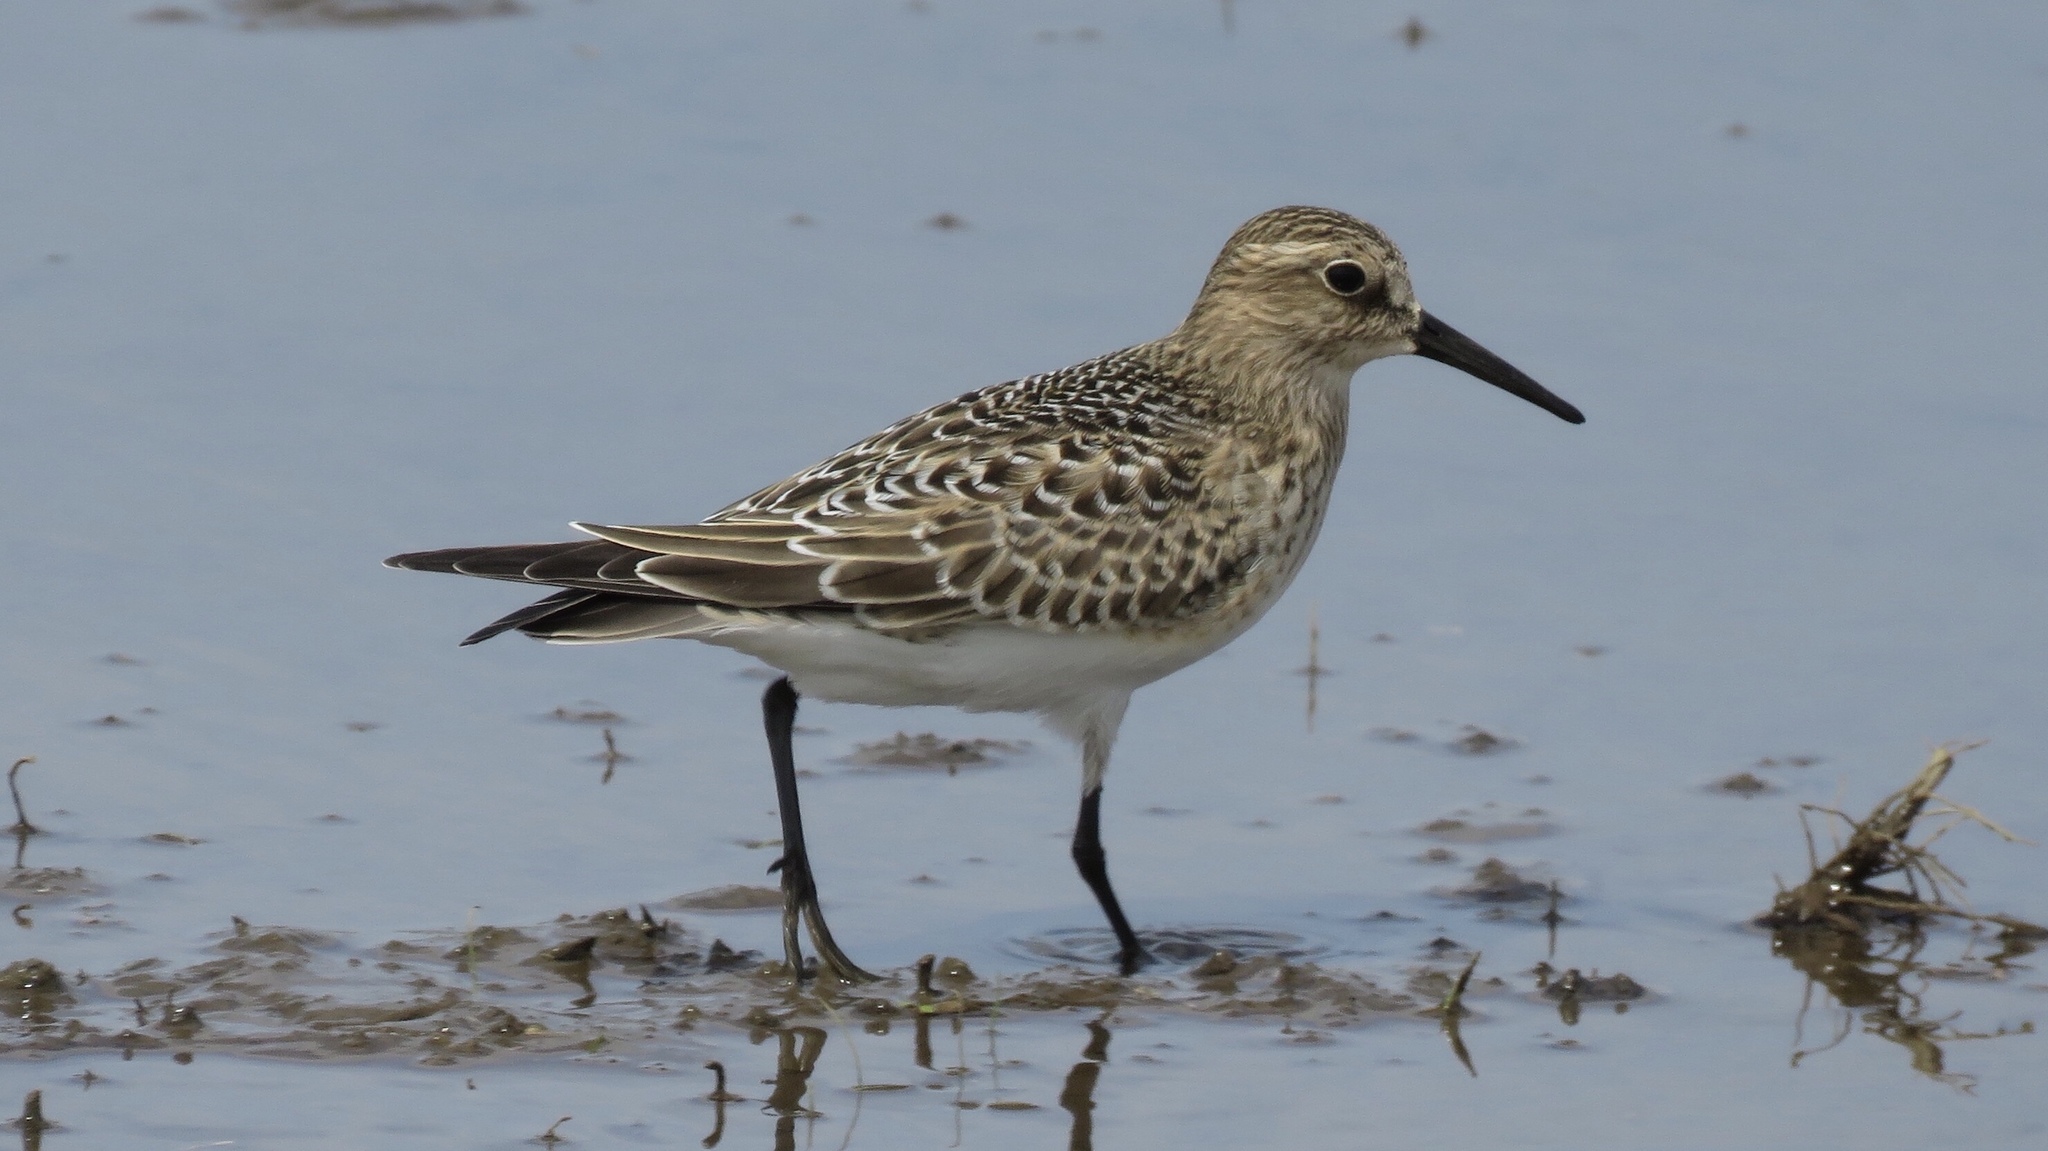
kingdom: Animalia
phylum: Chordata
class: Aves
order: Charadriiformes
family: Scolopacidae
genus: Calidris
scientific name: Calidris bairdii
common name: Baird's sandpiper
